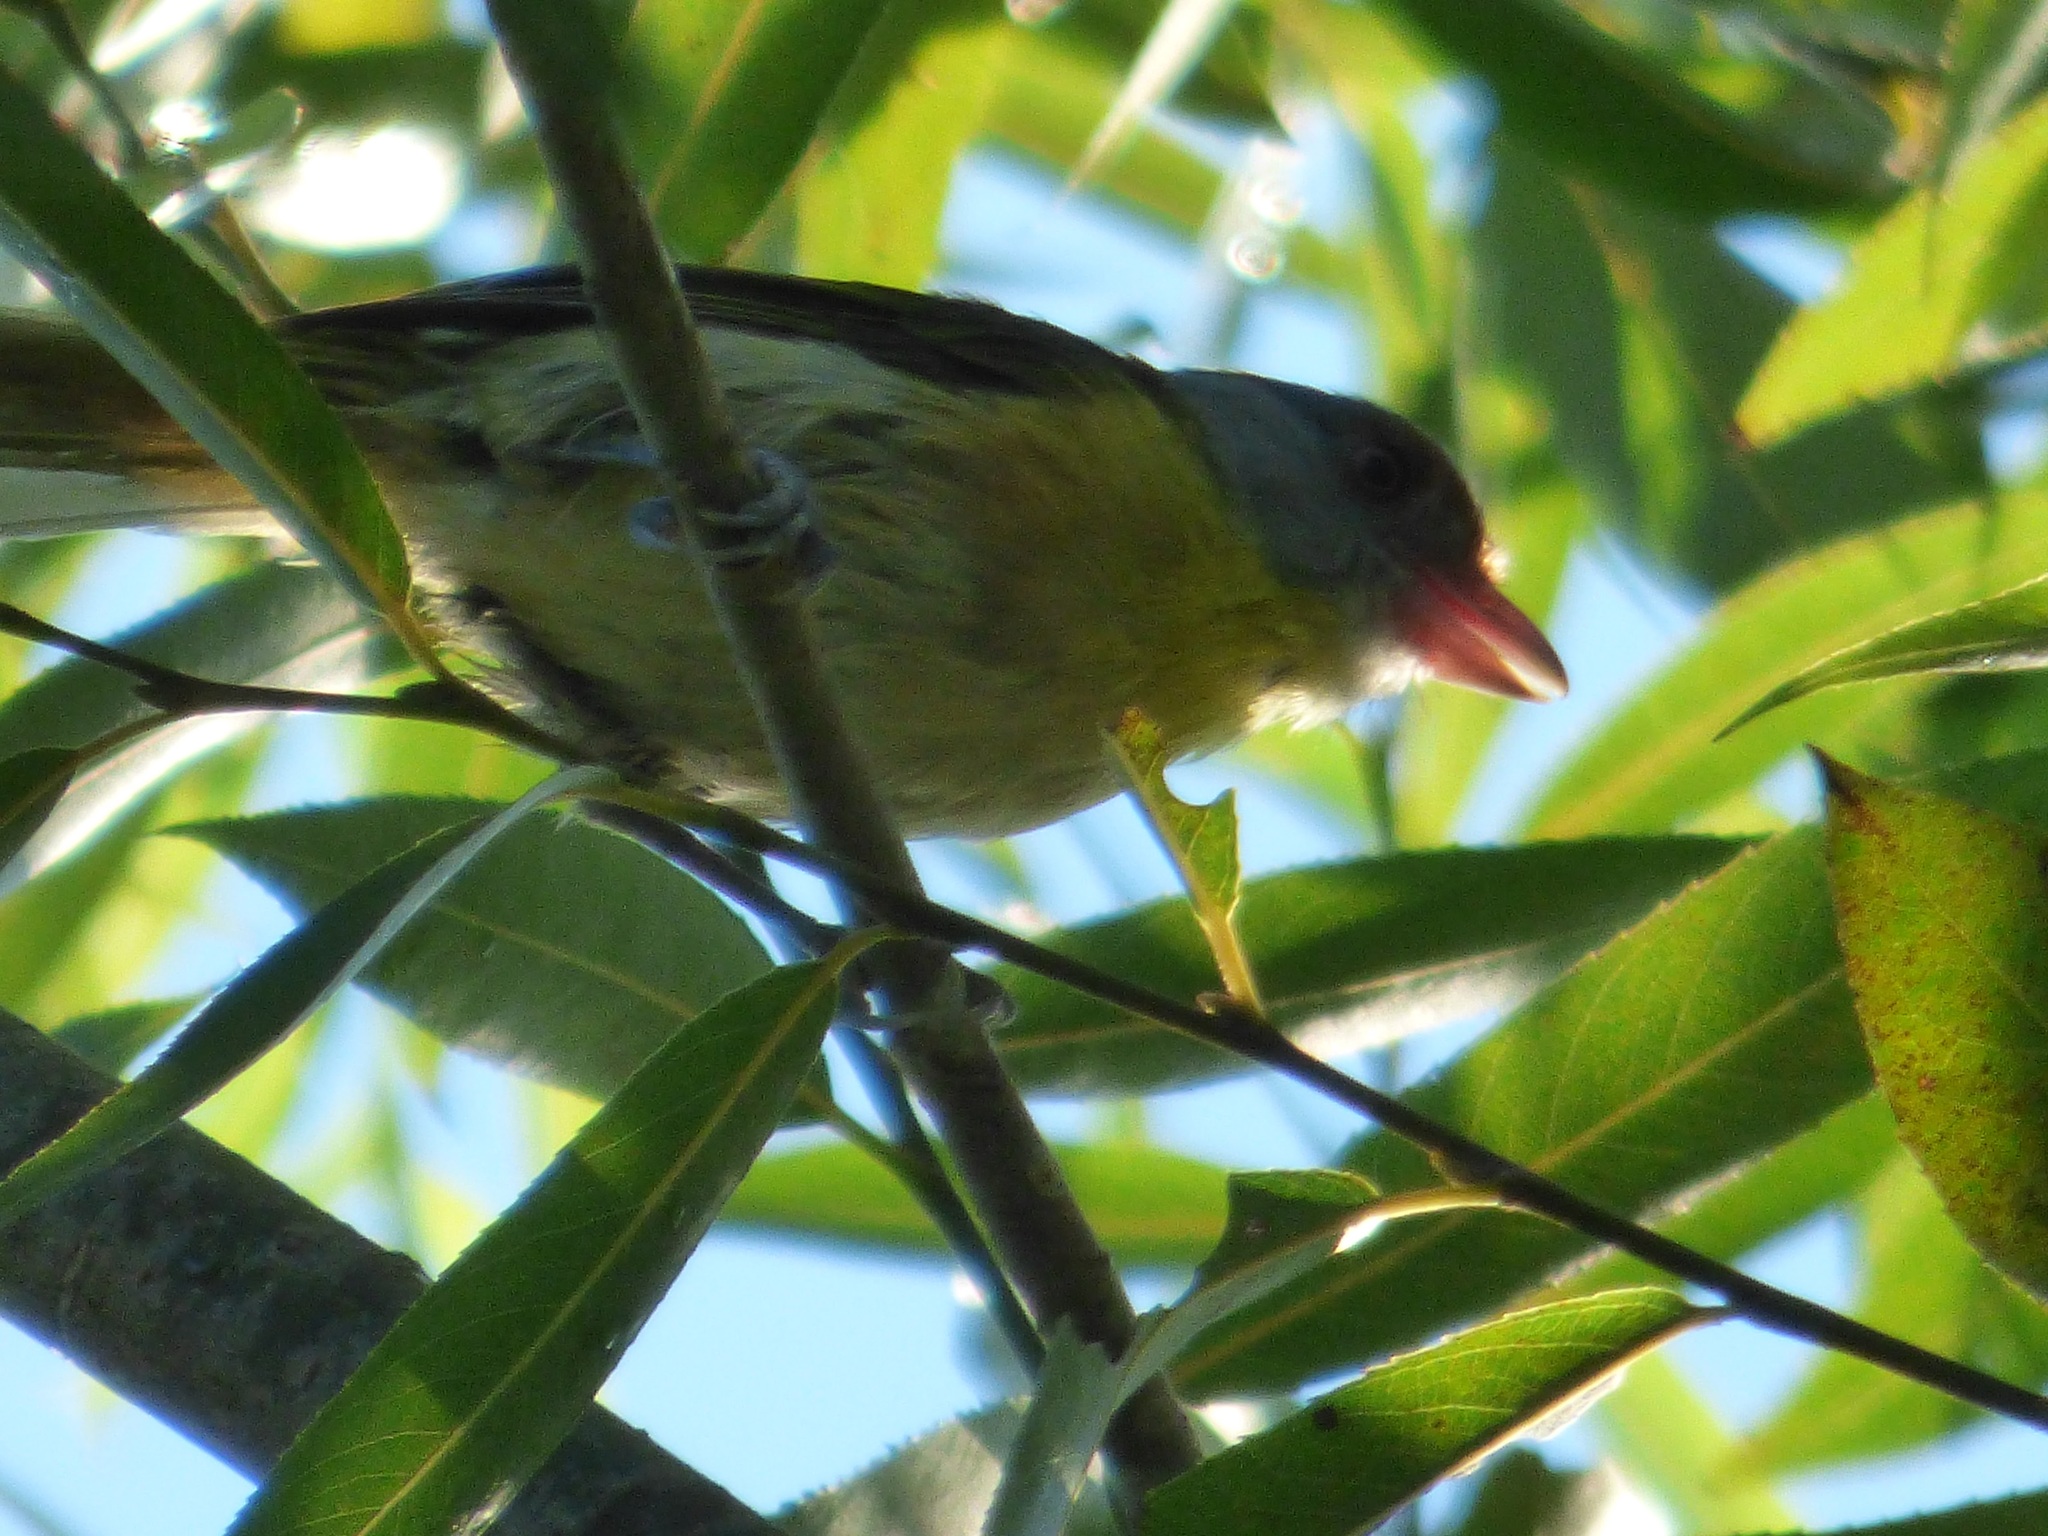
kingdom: Animalia
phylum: Chordata
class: Aves
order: Passeriformes
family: Vireonidae
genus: Cyclarhis
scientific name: Cyclarhis gujanensis
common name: Rufous-browed peppershrike
